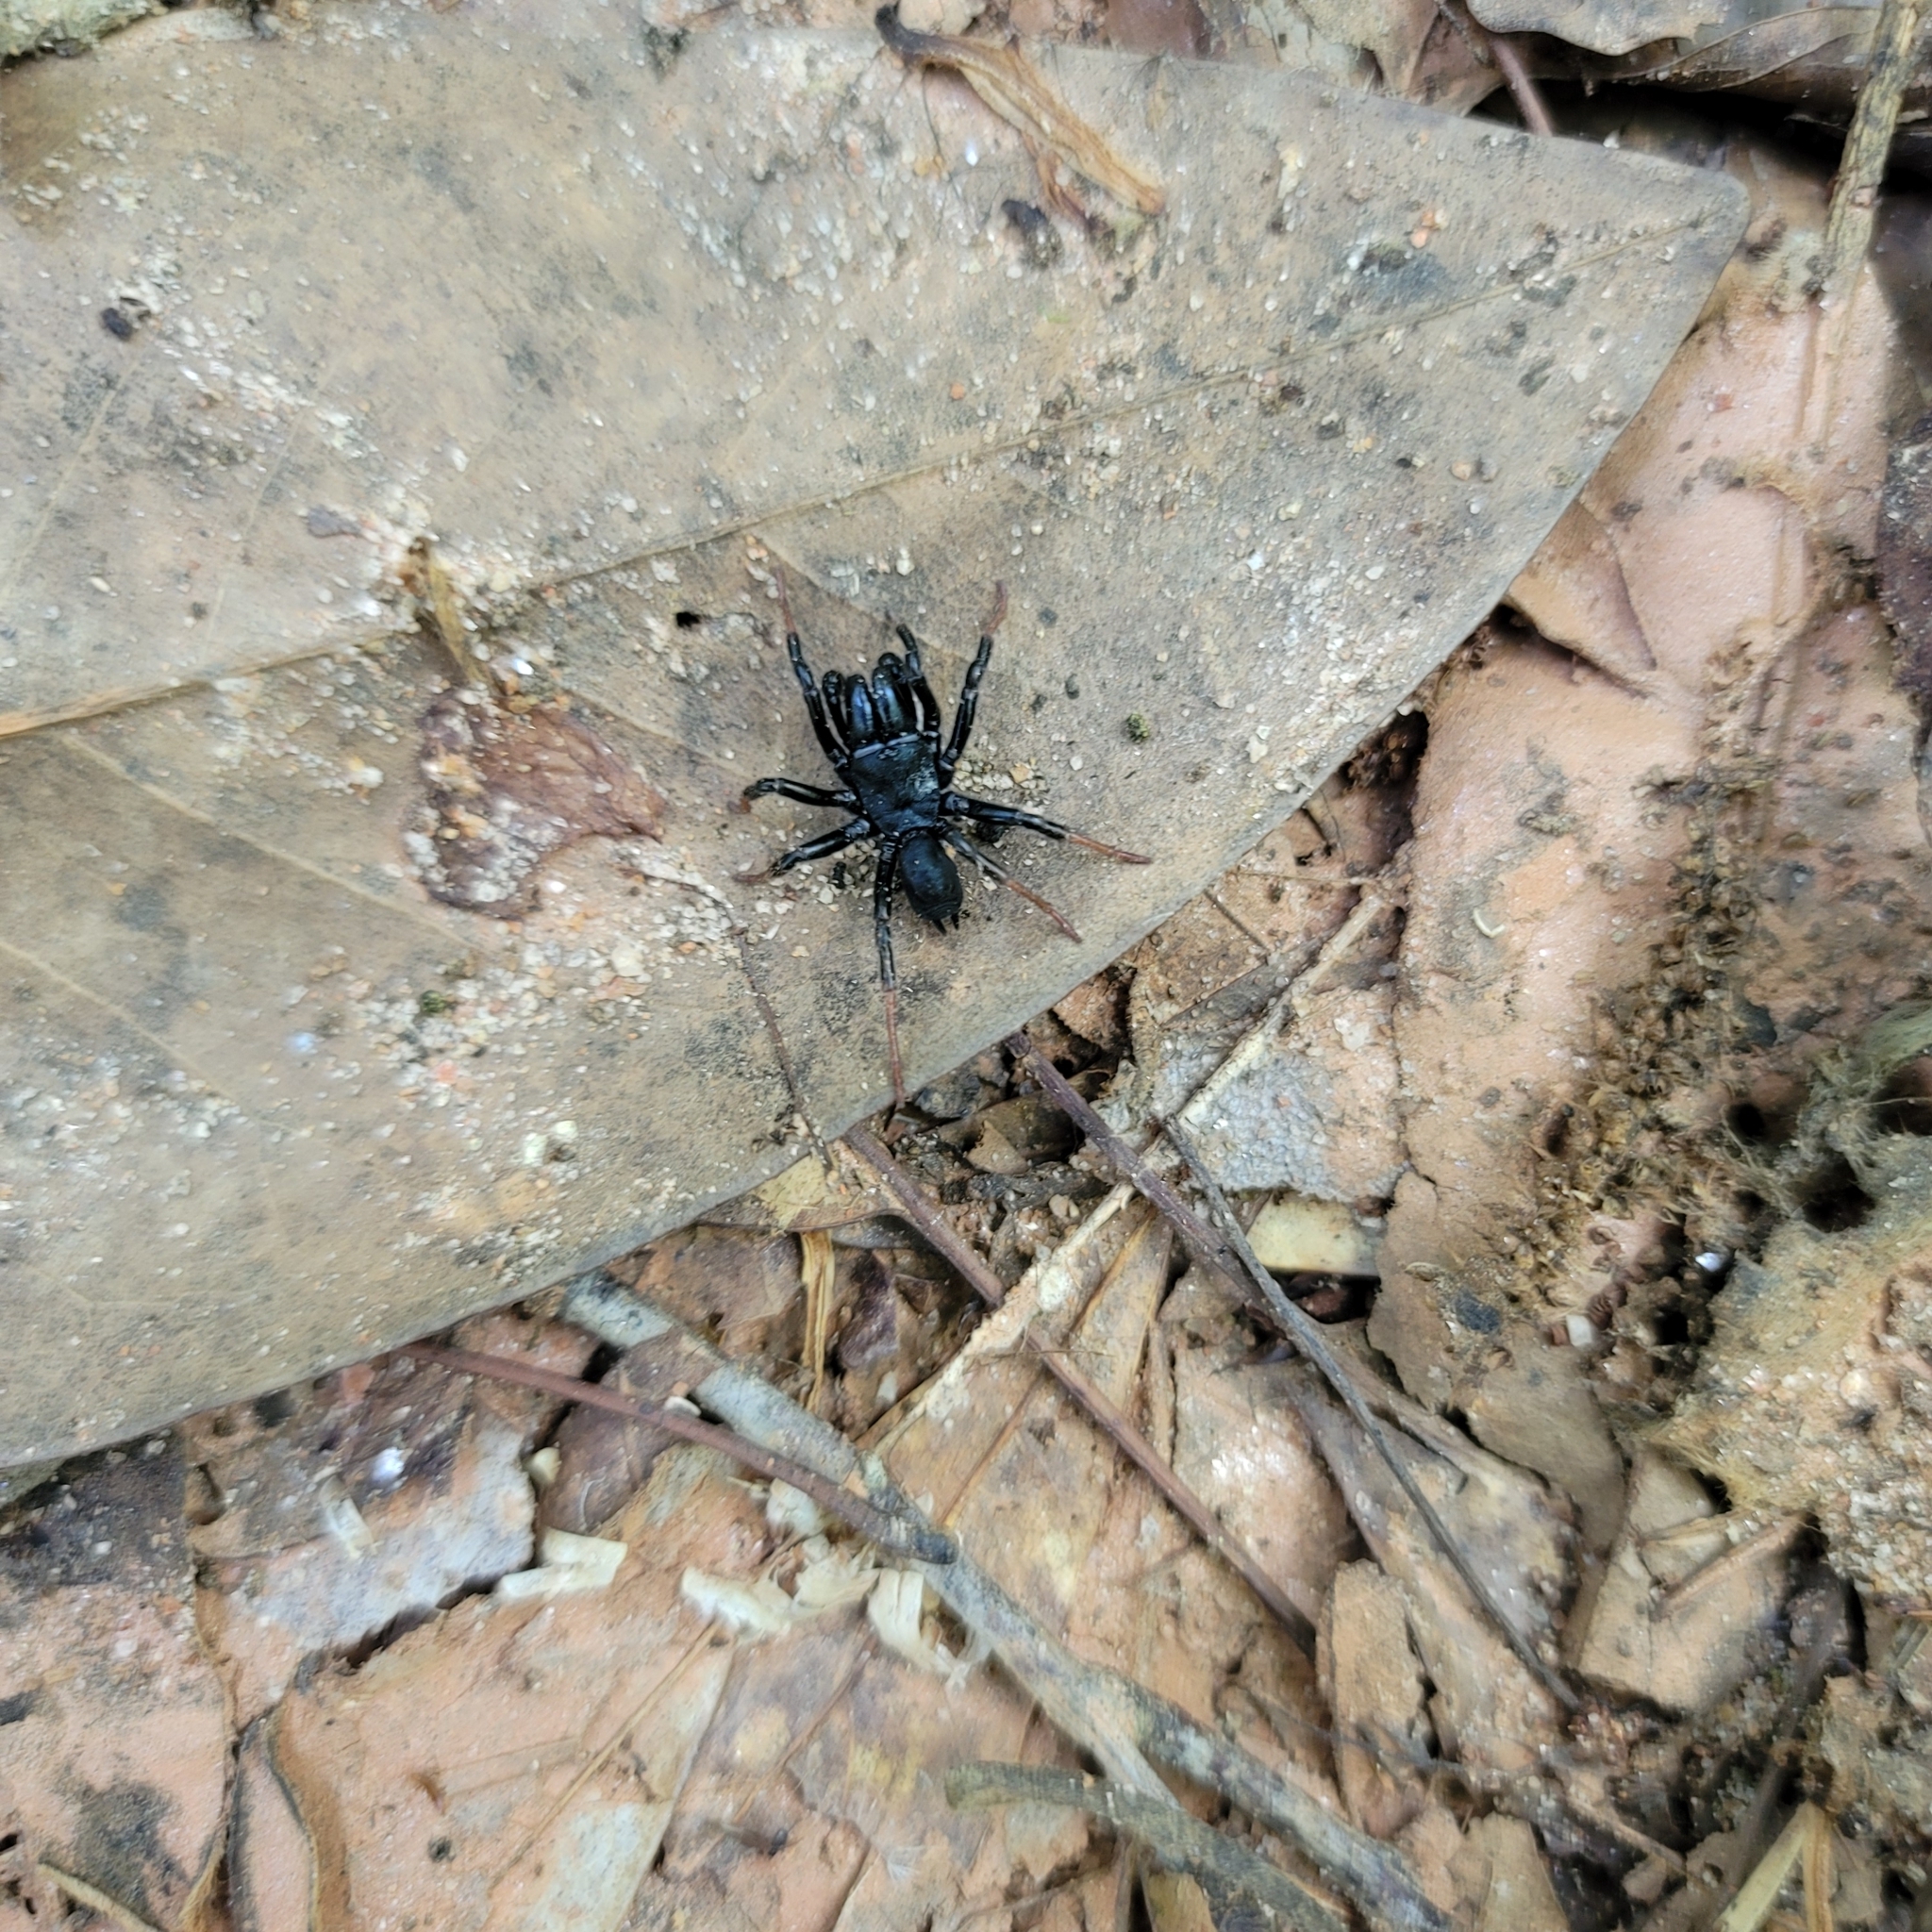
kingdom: Animalia
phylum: Arthropoda
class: Arachnida
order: Araneae
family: Atypidae
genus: Sphodros
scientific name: Sphodros atlanticus
